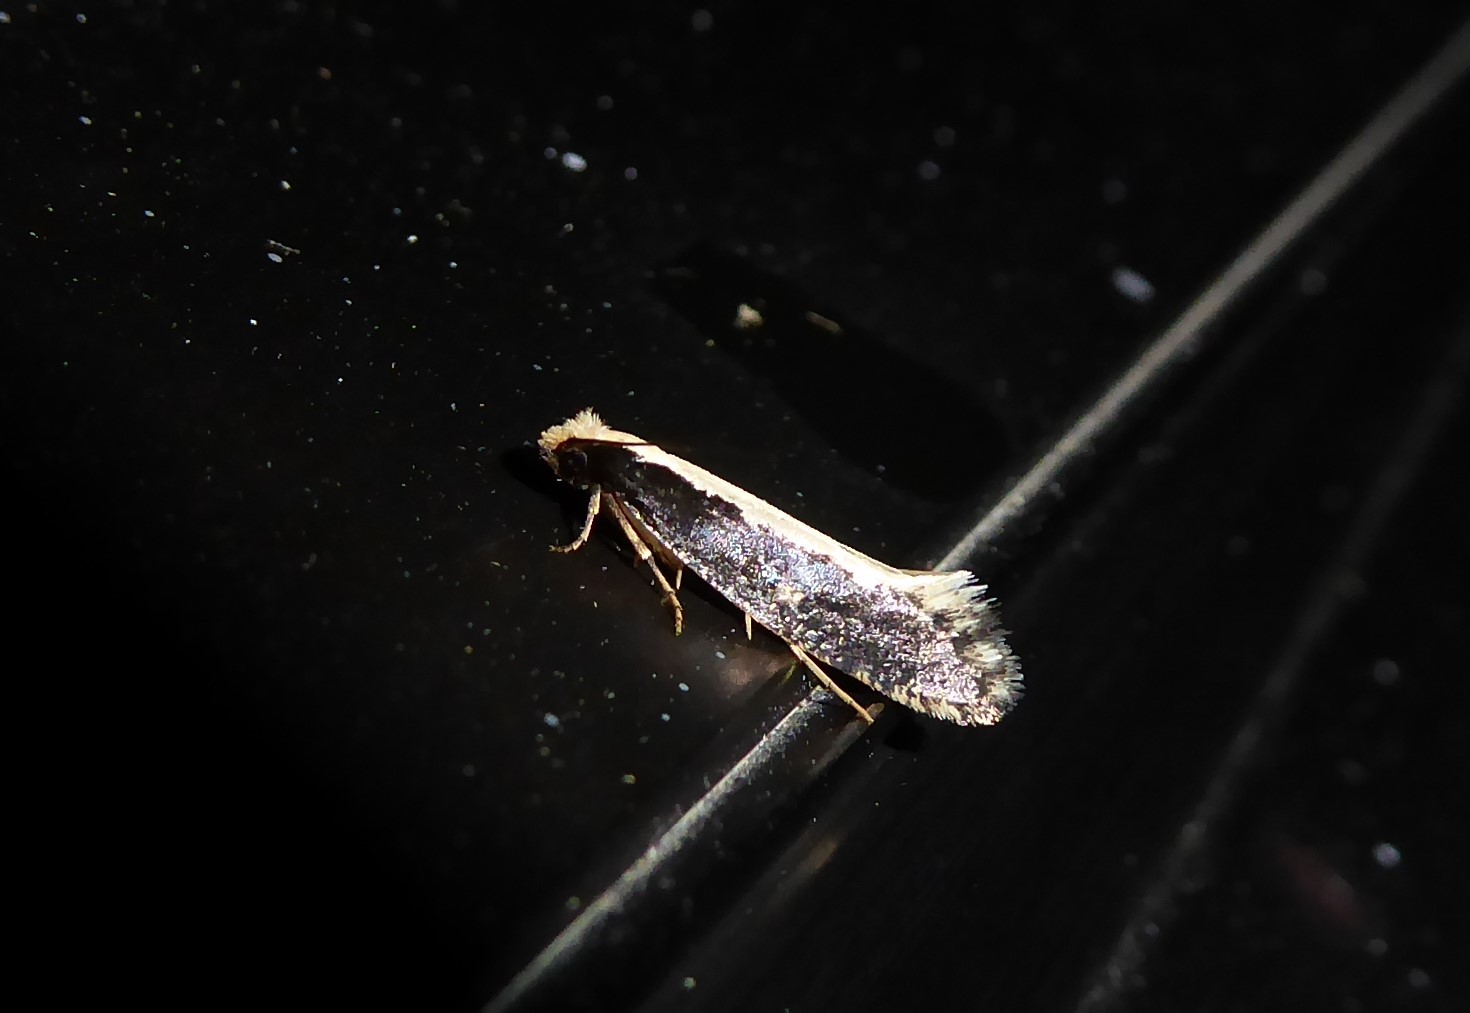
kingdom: Animalia
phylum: Arthropoda
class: Insecta
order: Lepidoptera
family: Tineidae
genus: Monopis
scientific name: Monopis ethelella
